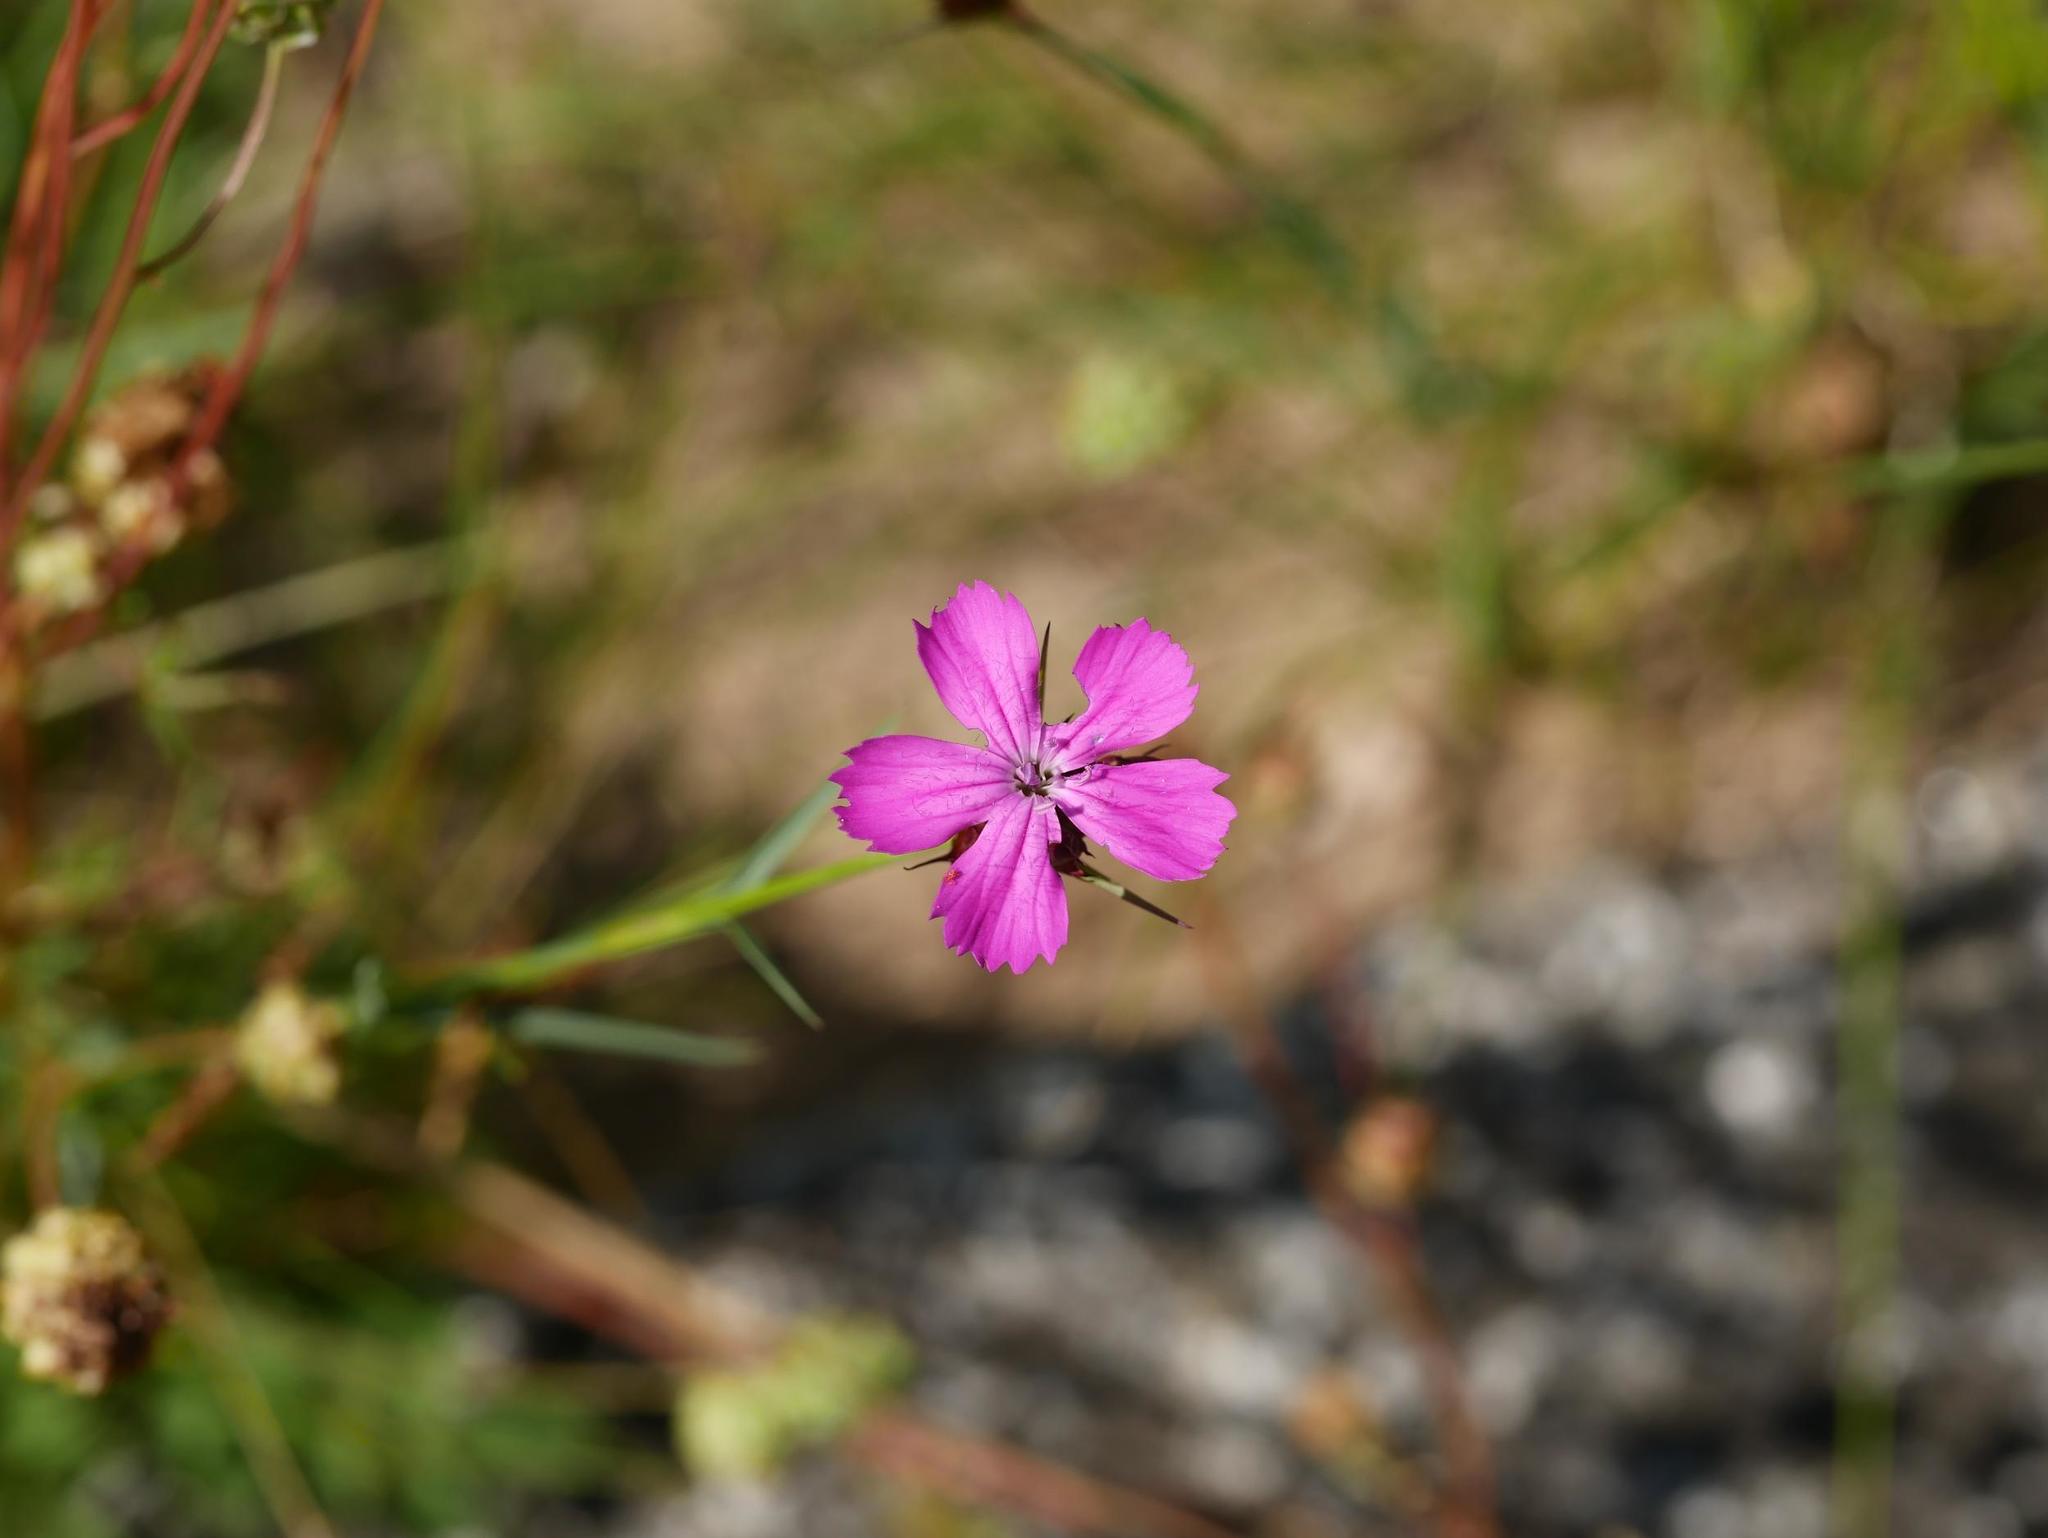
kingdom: Plantae
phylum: Tracheophyta
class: Magnoliopsida
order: Caryophyllales
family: Caryophyllaceae
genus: Dianthus
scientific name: Dianthus carthusianorum
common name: Carthusian pink
